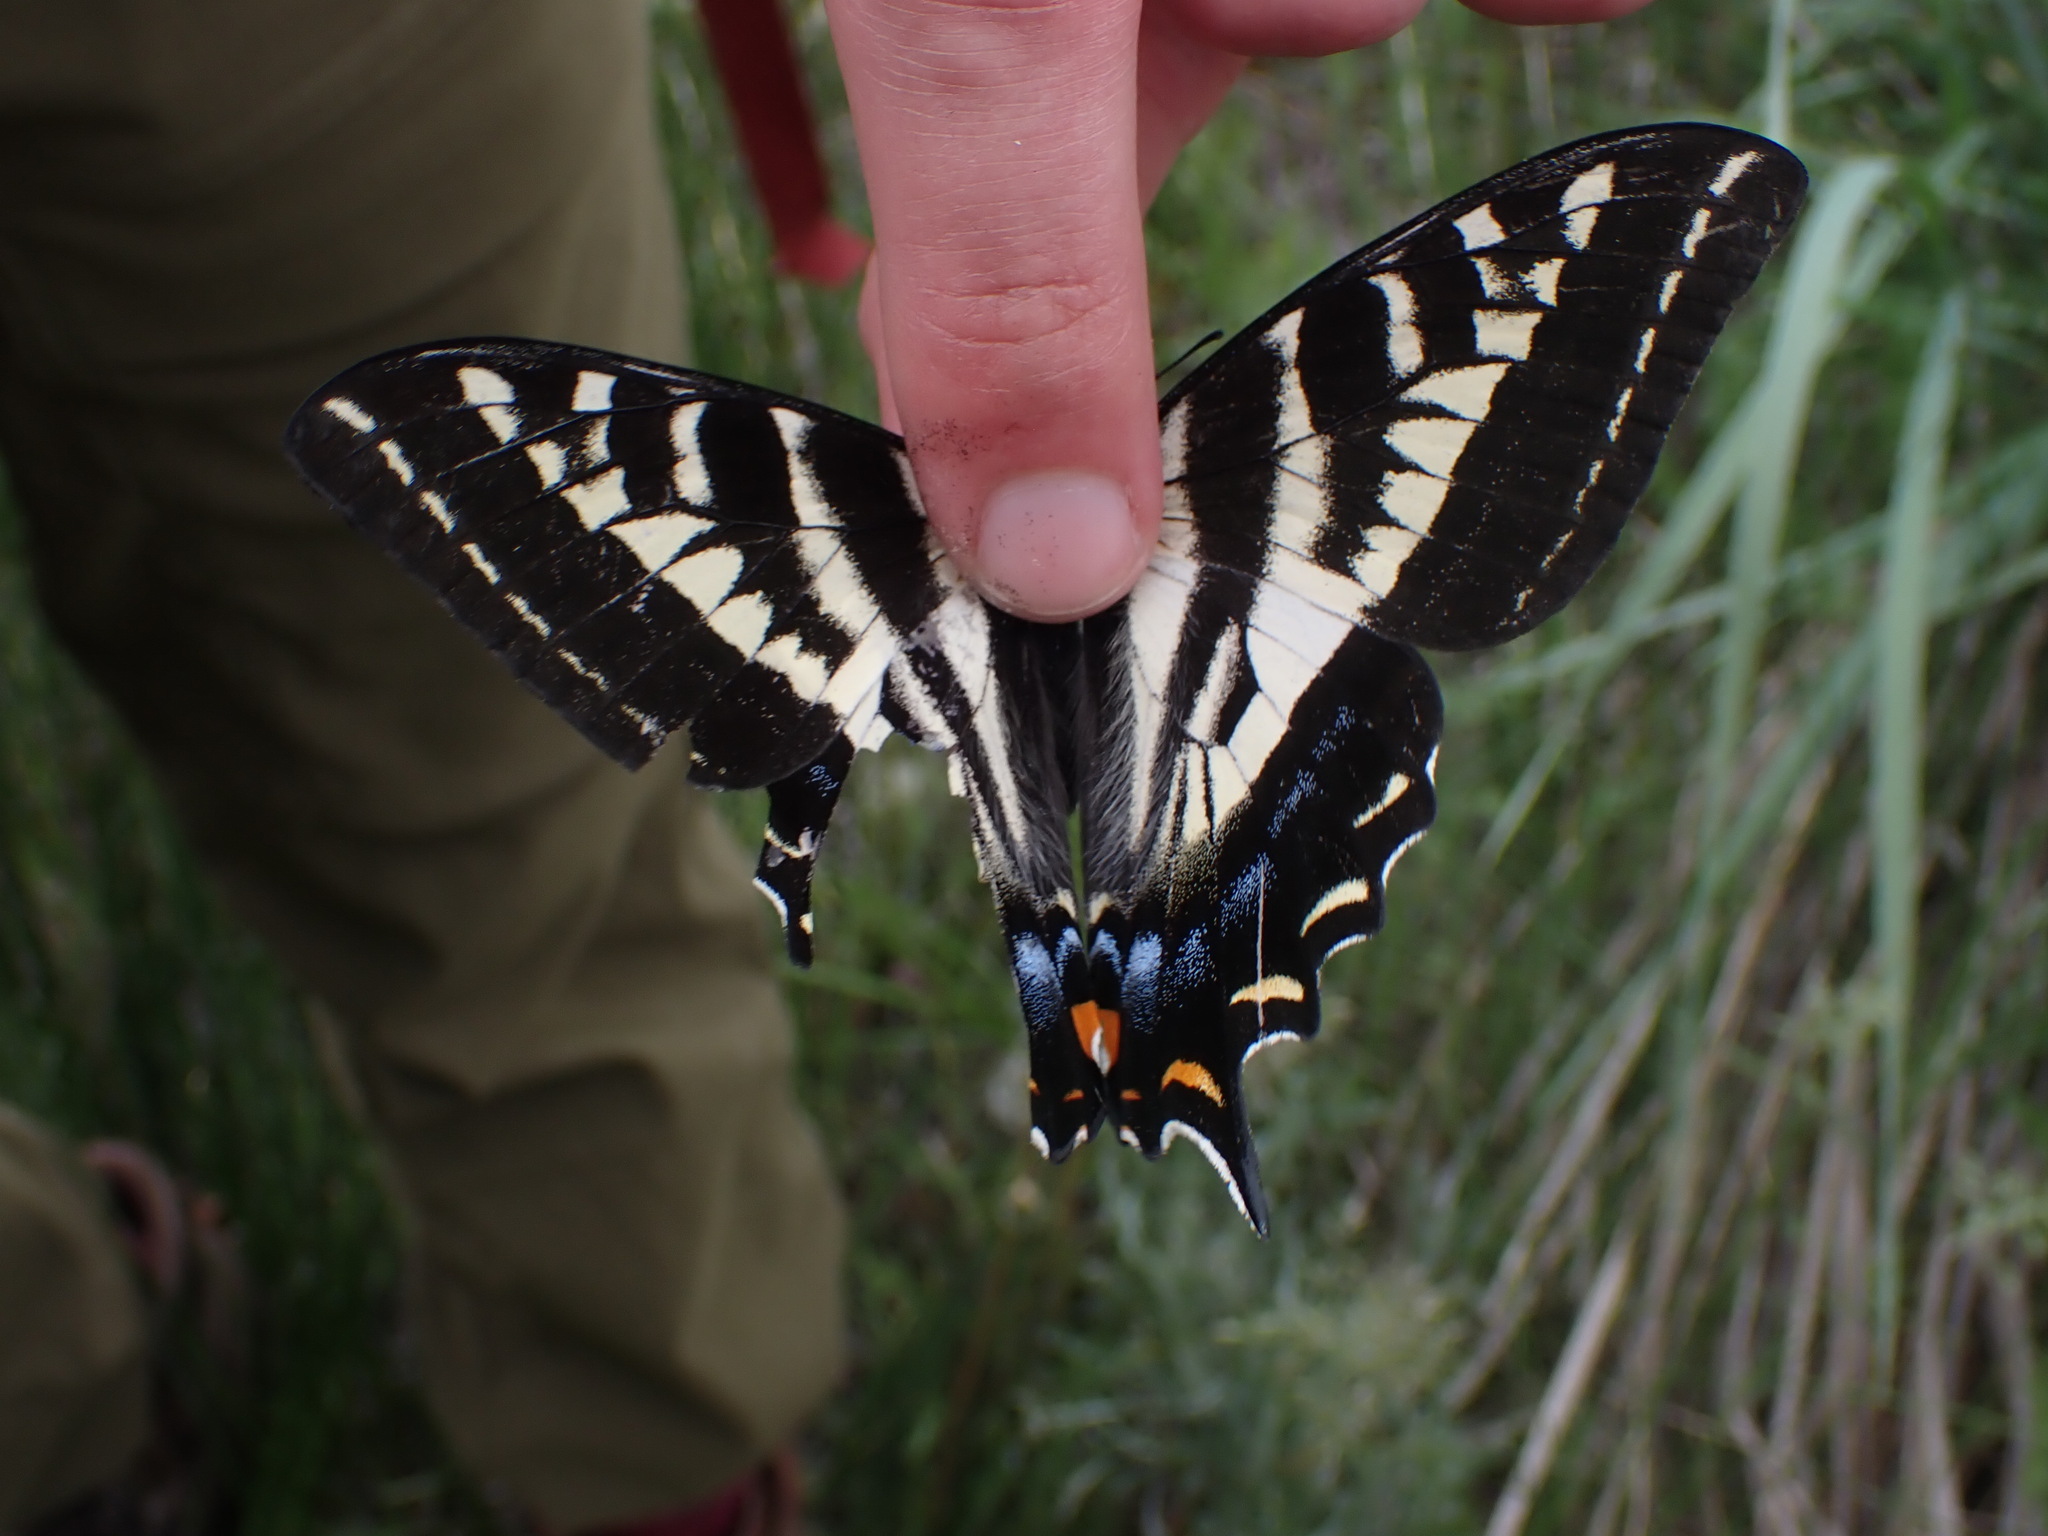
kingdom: Animalia
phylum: Arthropoda
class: Insecta
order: Lepidoptera
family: Papilionidae
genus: Papilio
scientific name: Papilio eurymedon
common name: Pale tiger swallowtail
